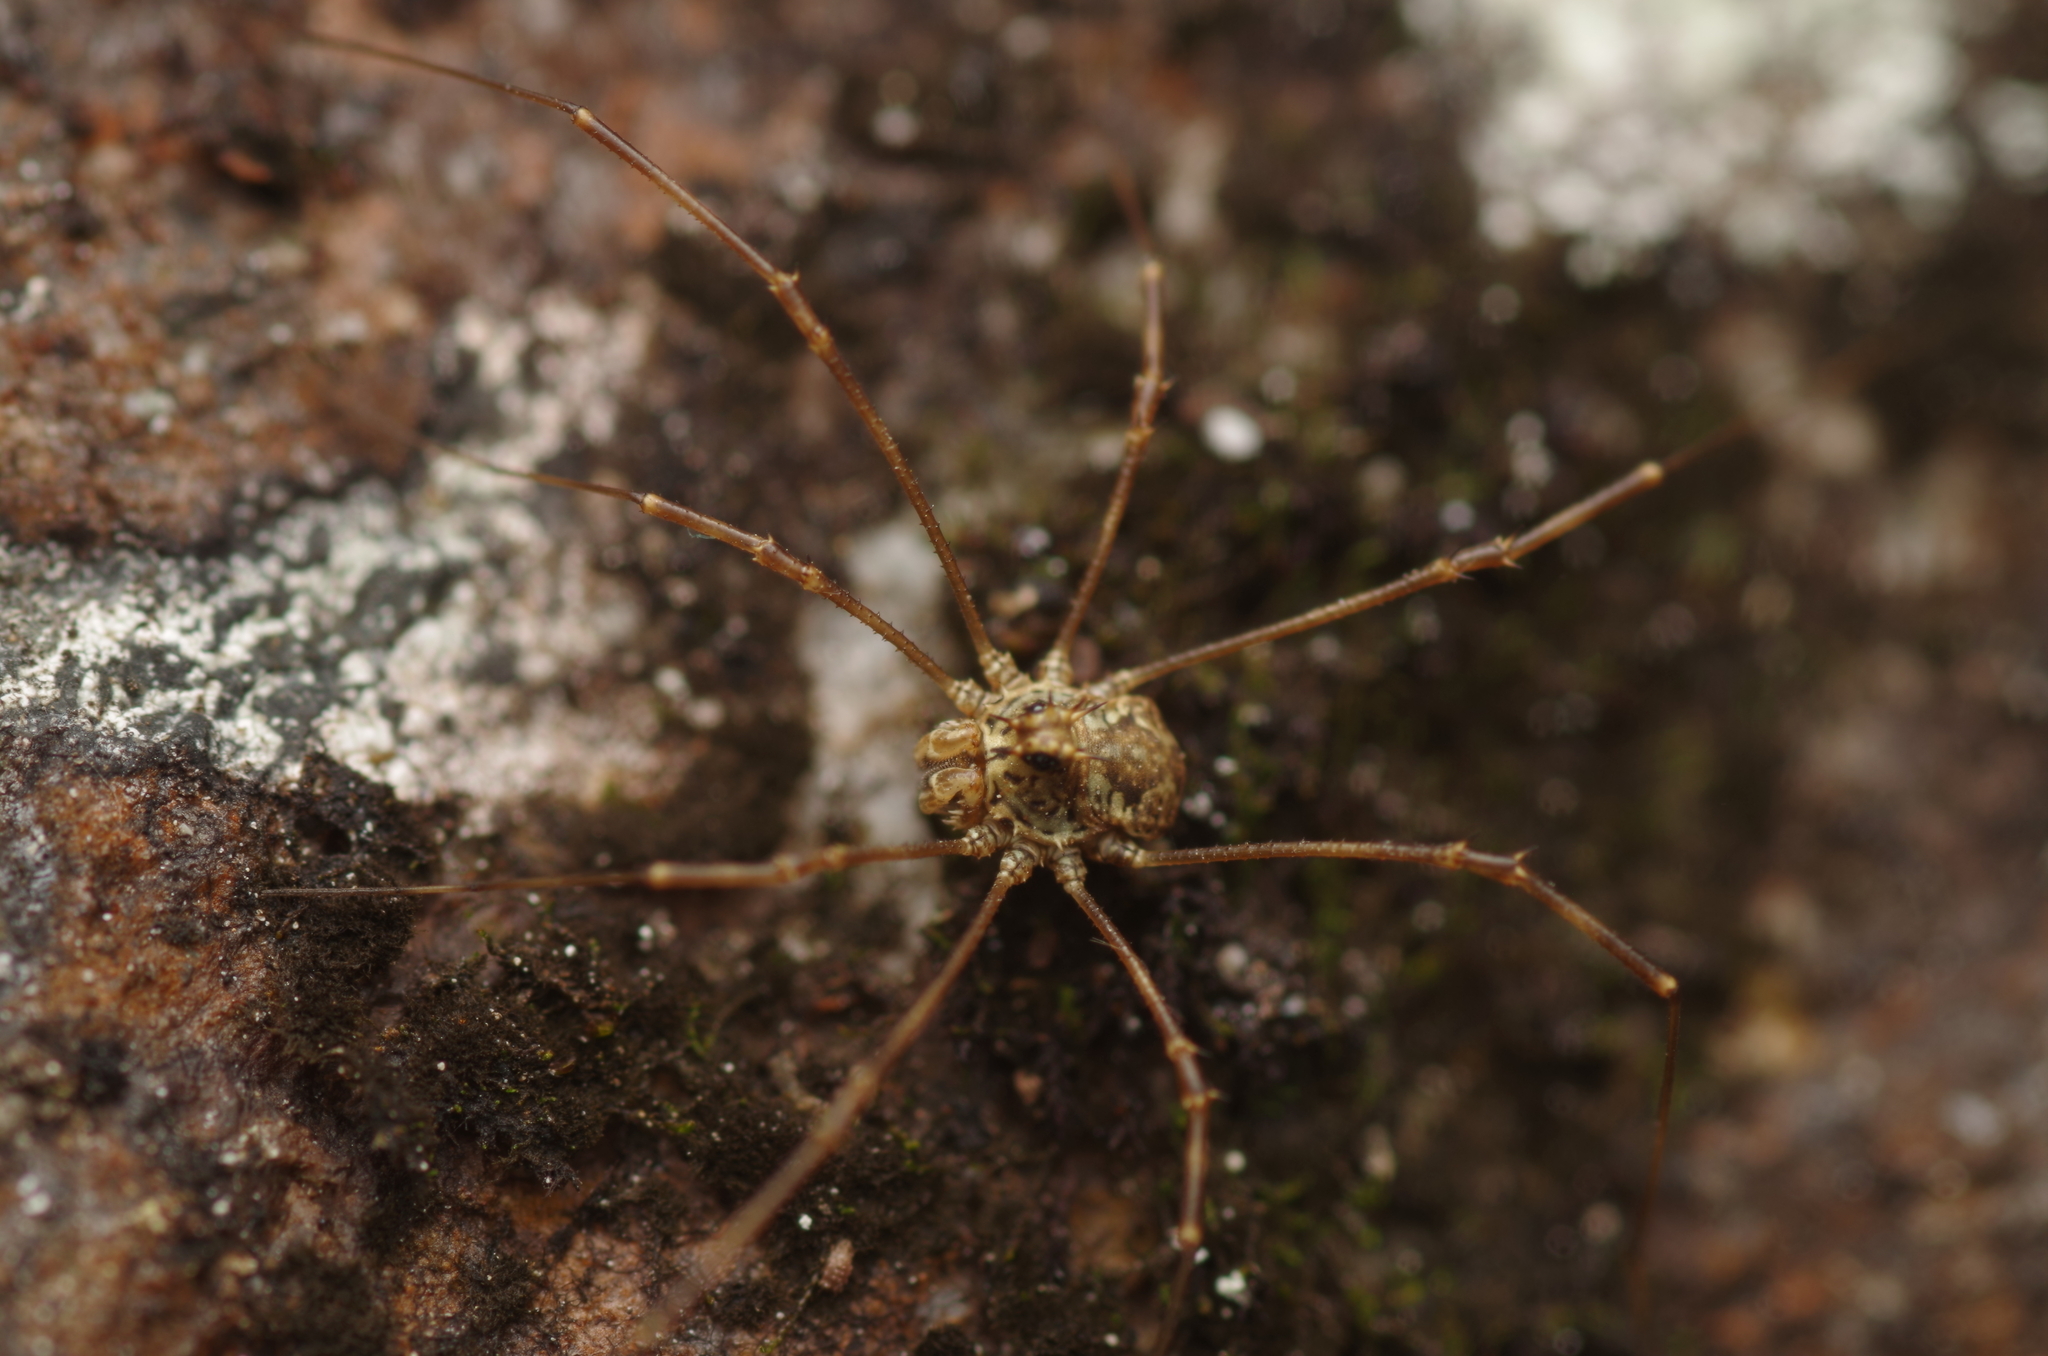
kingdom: Animalia
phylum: Arthropoda
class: Arachnida
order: Opiliones
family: Phalangiidae
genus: Megabunus
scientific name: Megabunus diadema
